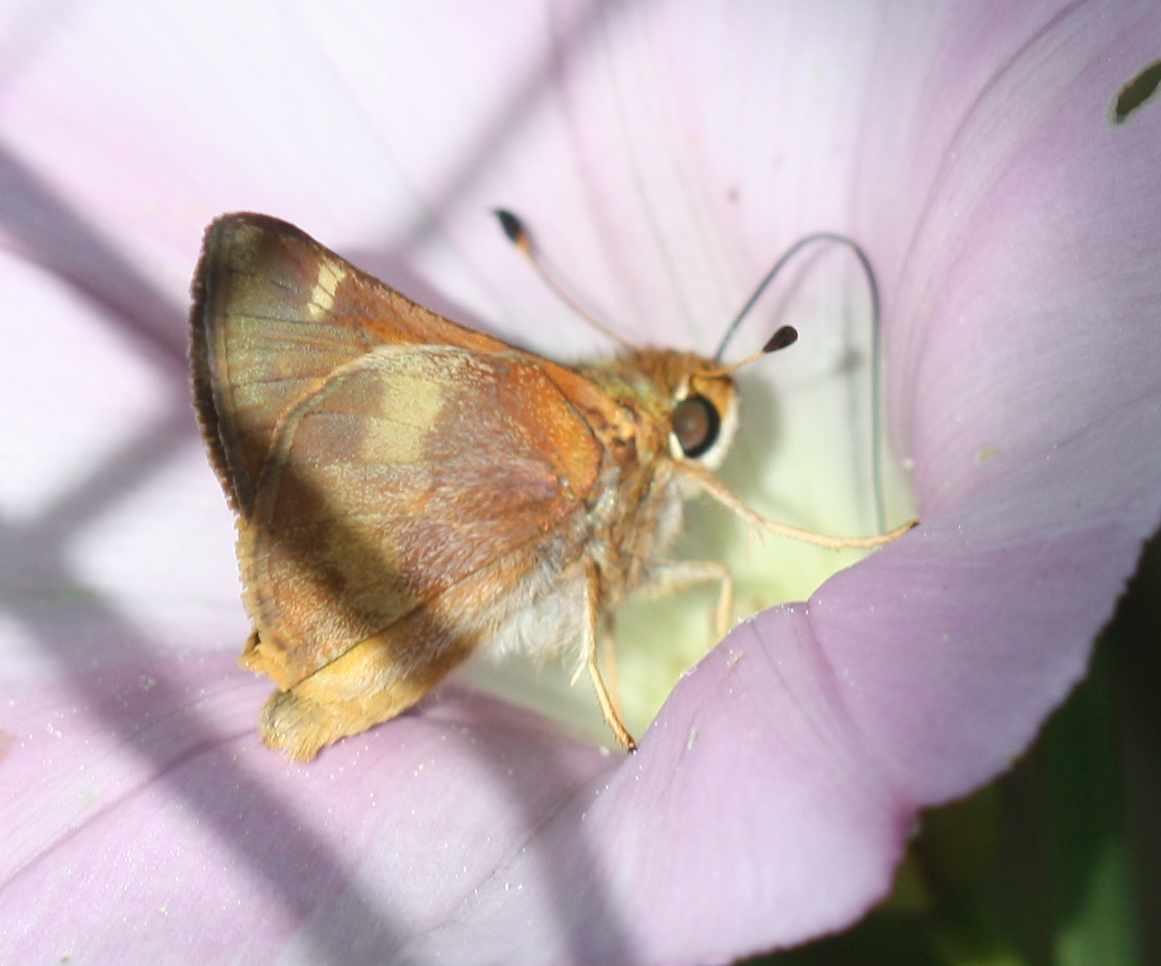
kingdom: Animalia
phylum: Arthropoda
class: Insecta
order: Lepidoptera
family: Hesperiidae
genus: Lon
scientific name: Lon melane
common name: Umber skipper
